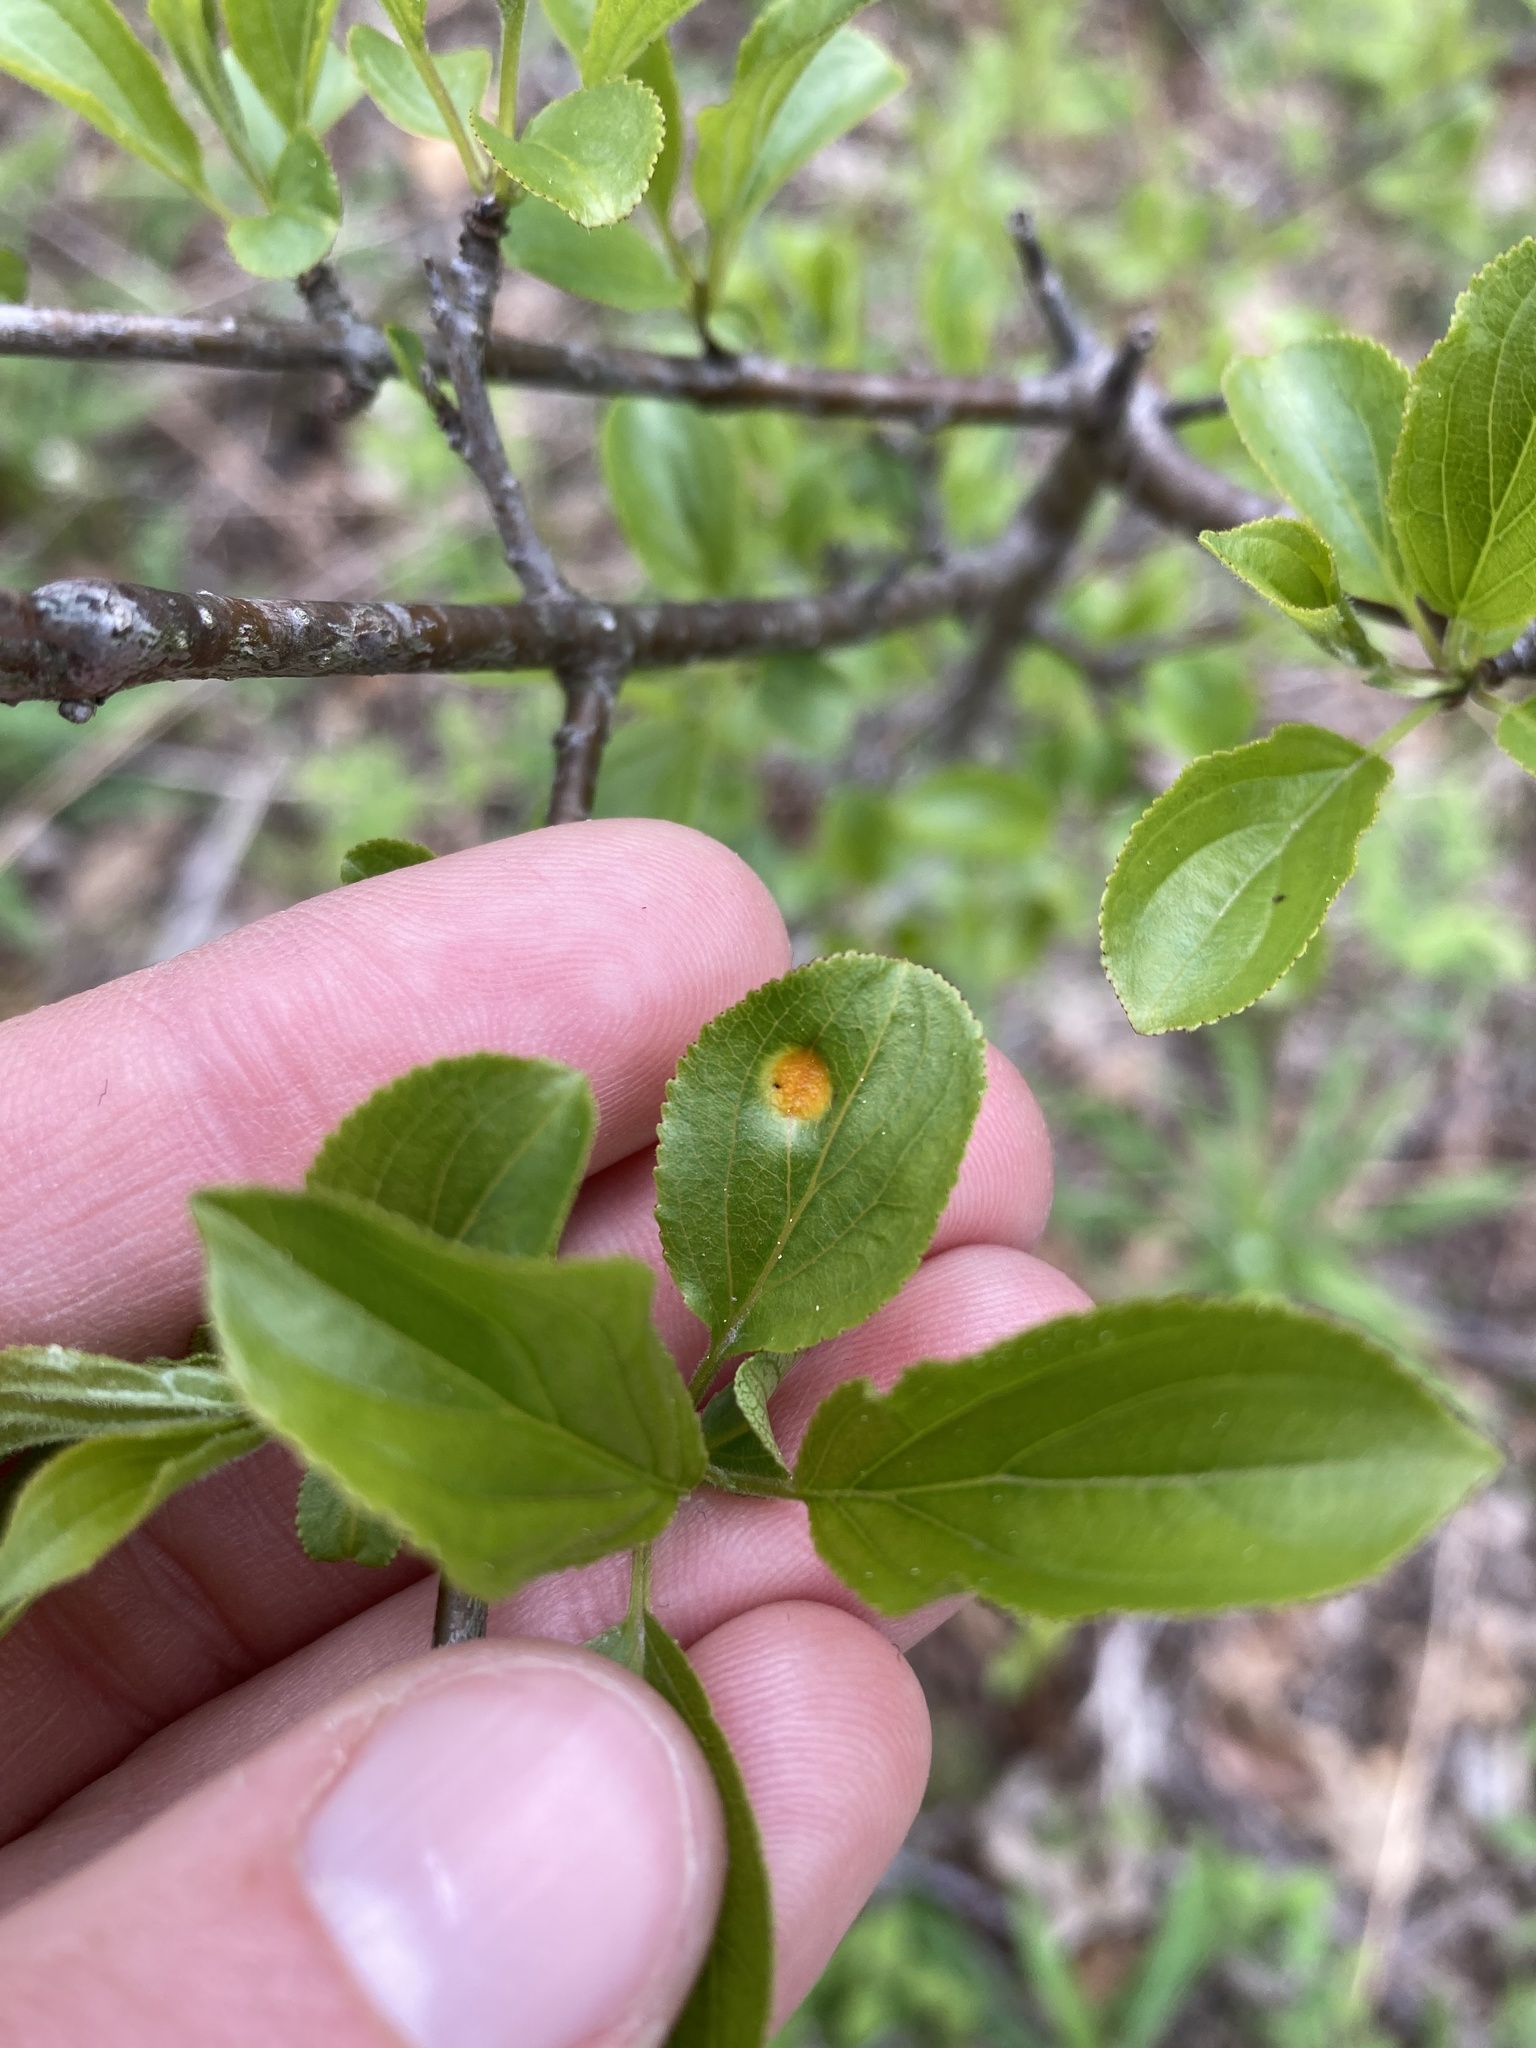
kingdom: Fungi
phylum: Basidiomycota
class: Pucciniomycetes
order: Pucciniales
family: Pucciniaceae
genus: Puccinia
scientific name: Puccinia coronata
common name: Crown rust
